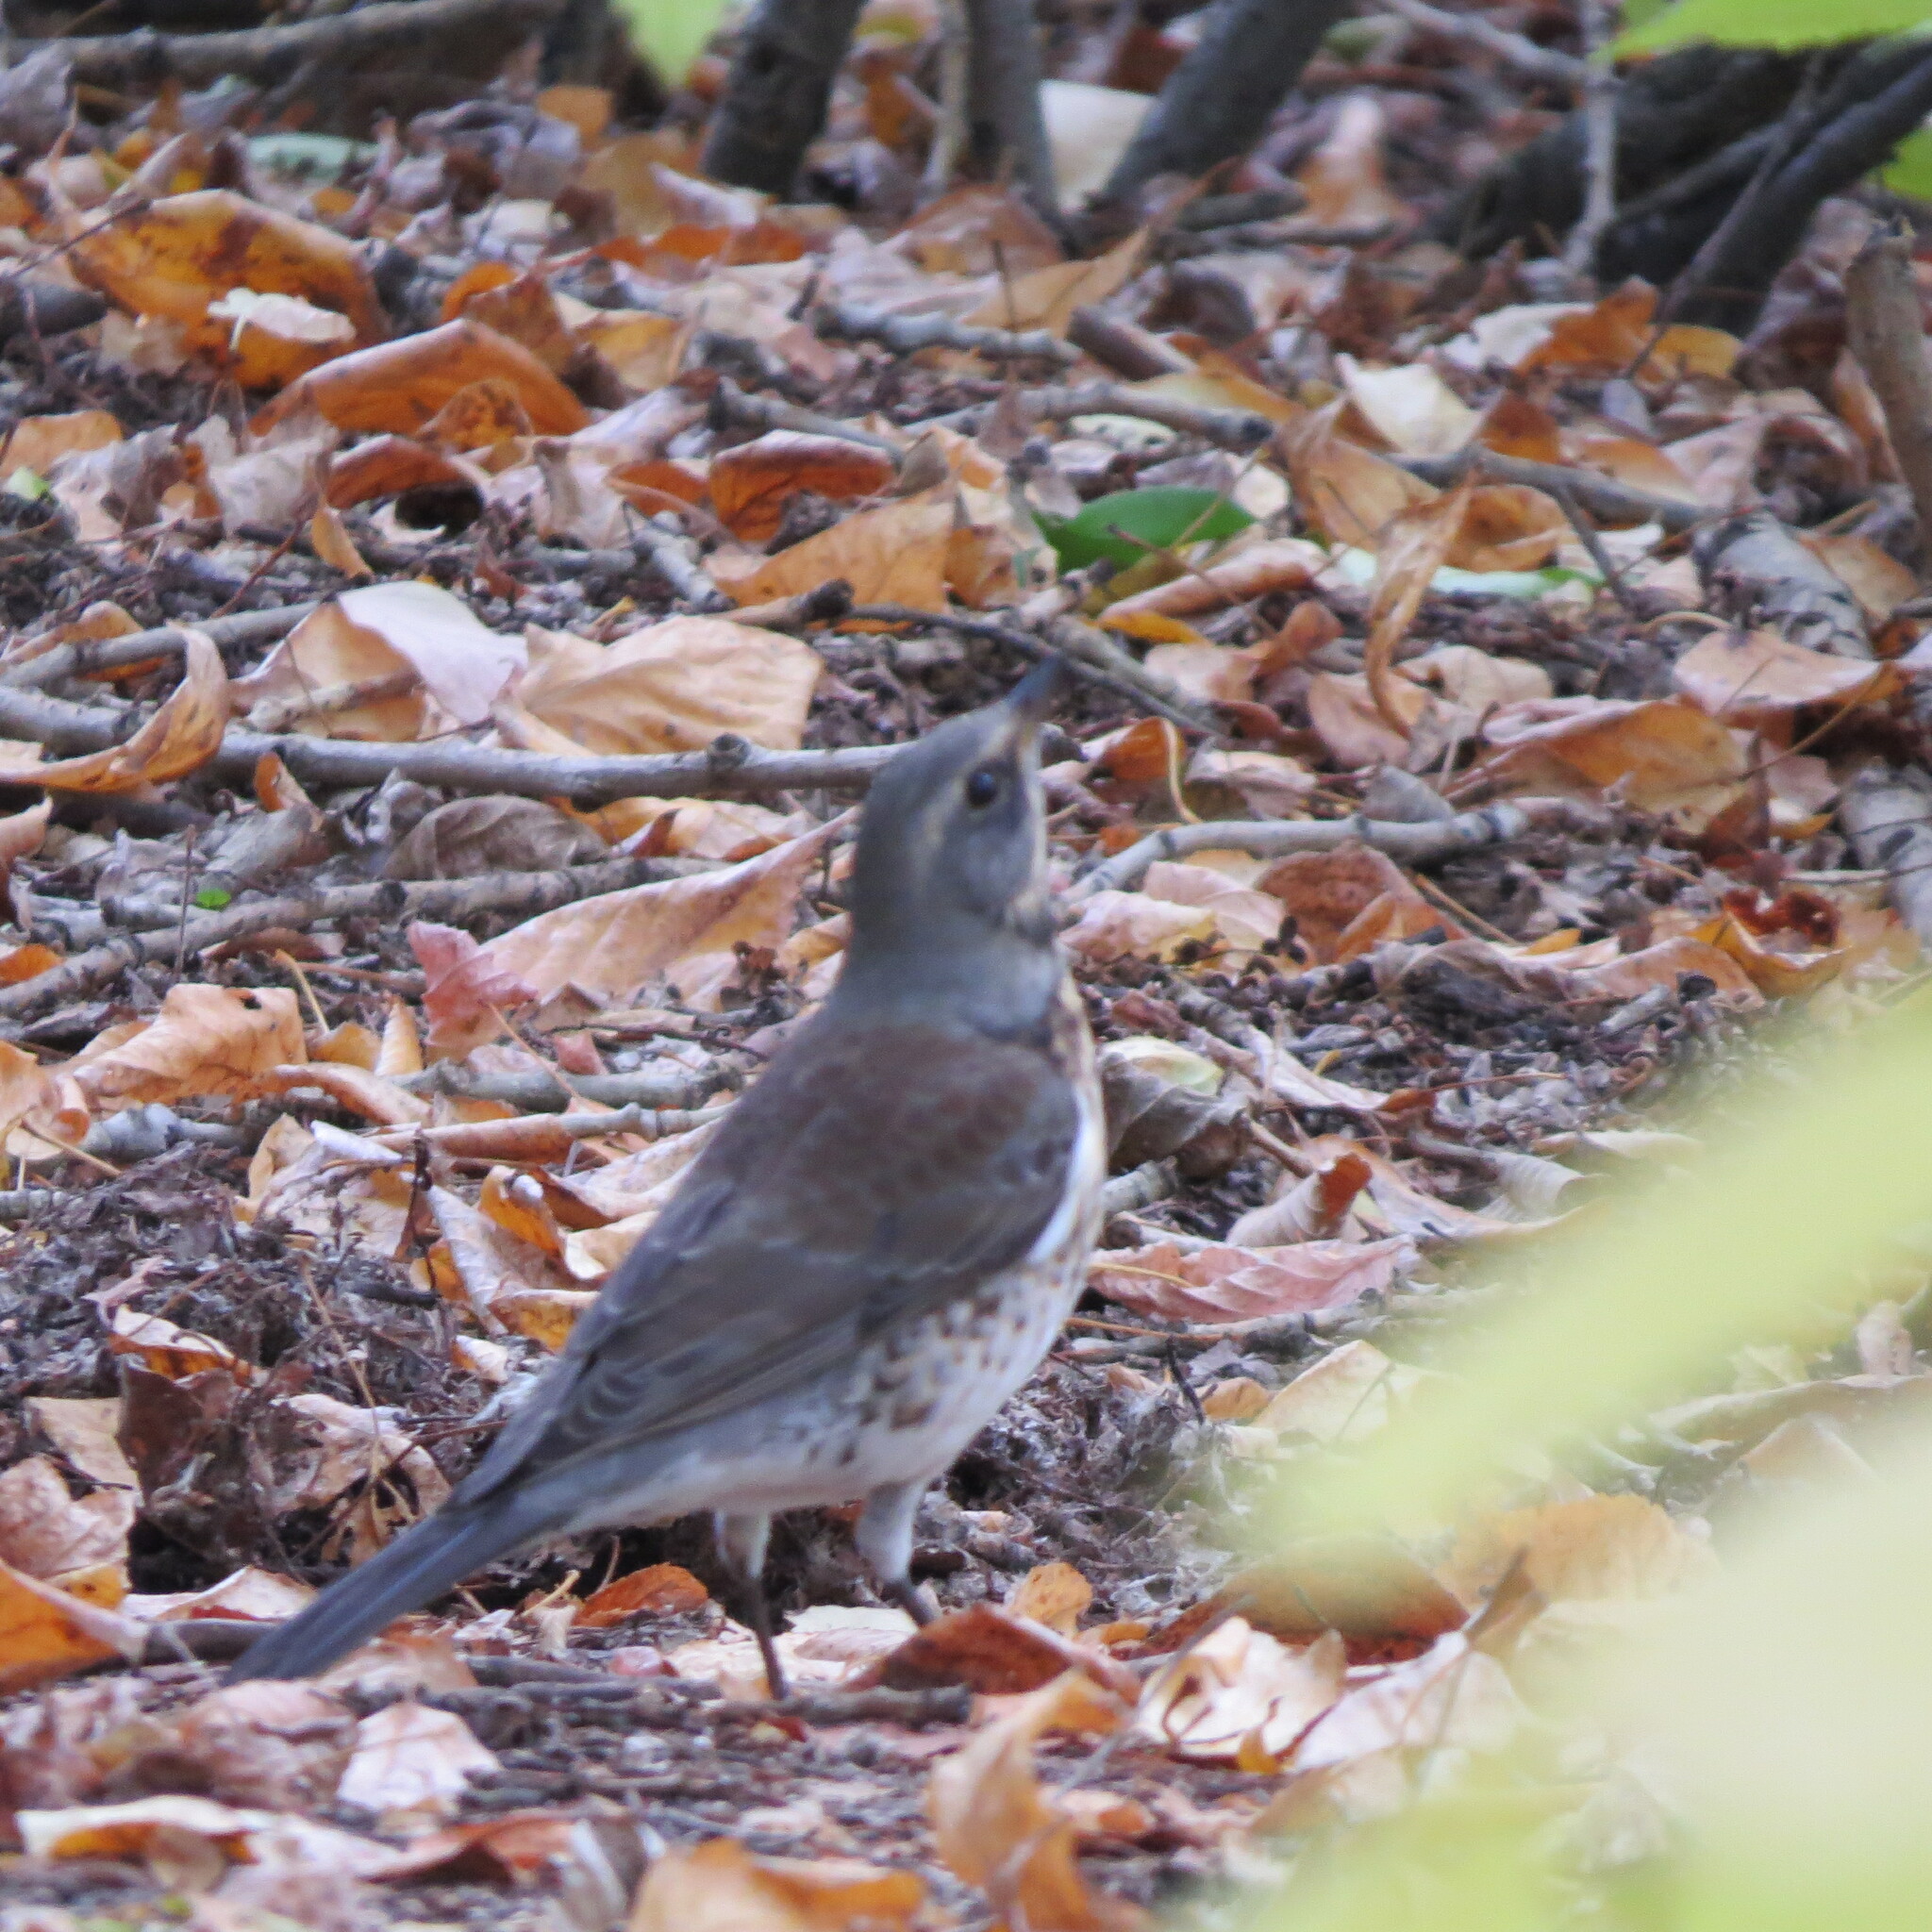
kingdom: Animalia
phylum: Chordata
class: Aves
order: Passeriformes
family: Turdidae
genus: Turdus
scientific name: Turdus pilaris
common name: Fieldfare
